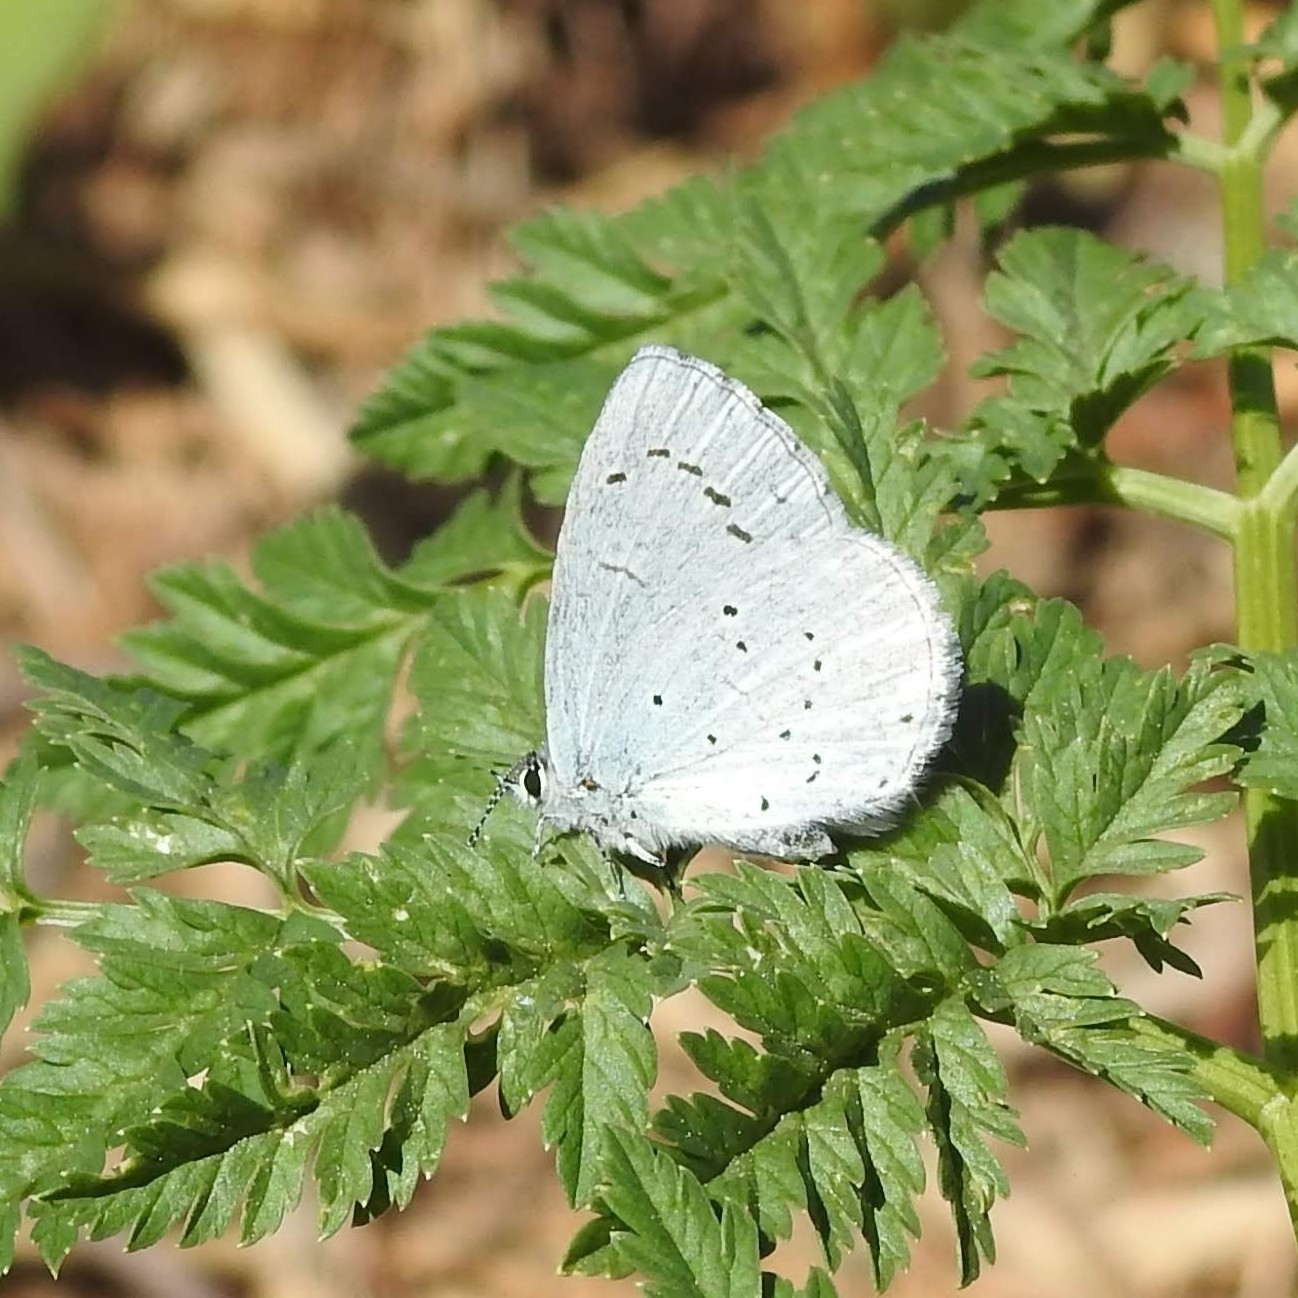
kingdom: Animalia
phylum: Arthropoda
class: Insecta
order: Lepidoptera
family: Lycaenidae
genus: Celastrina
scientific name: Celastrina argiolus
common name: Holly blue
